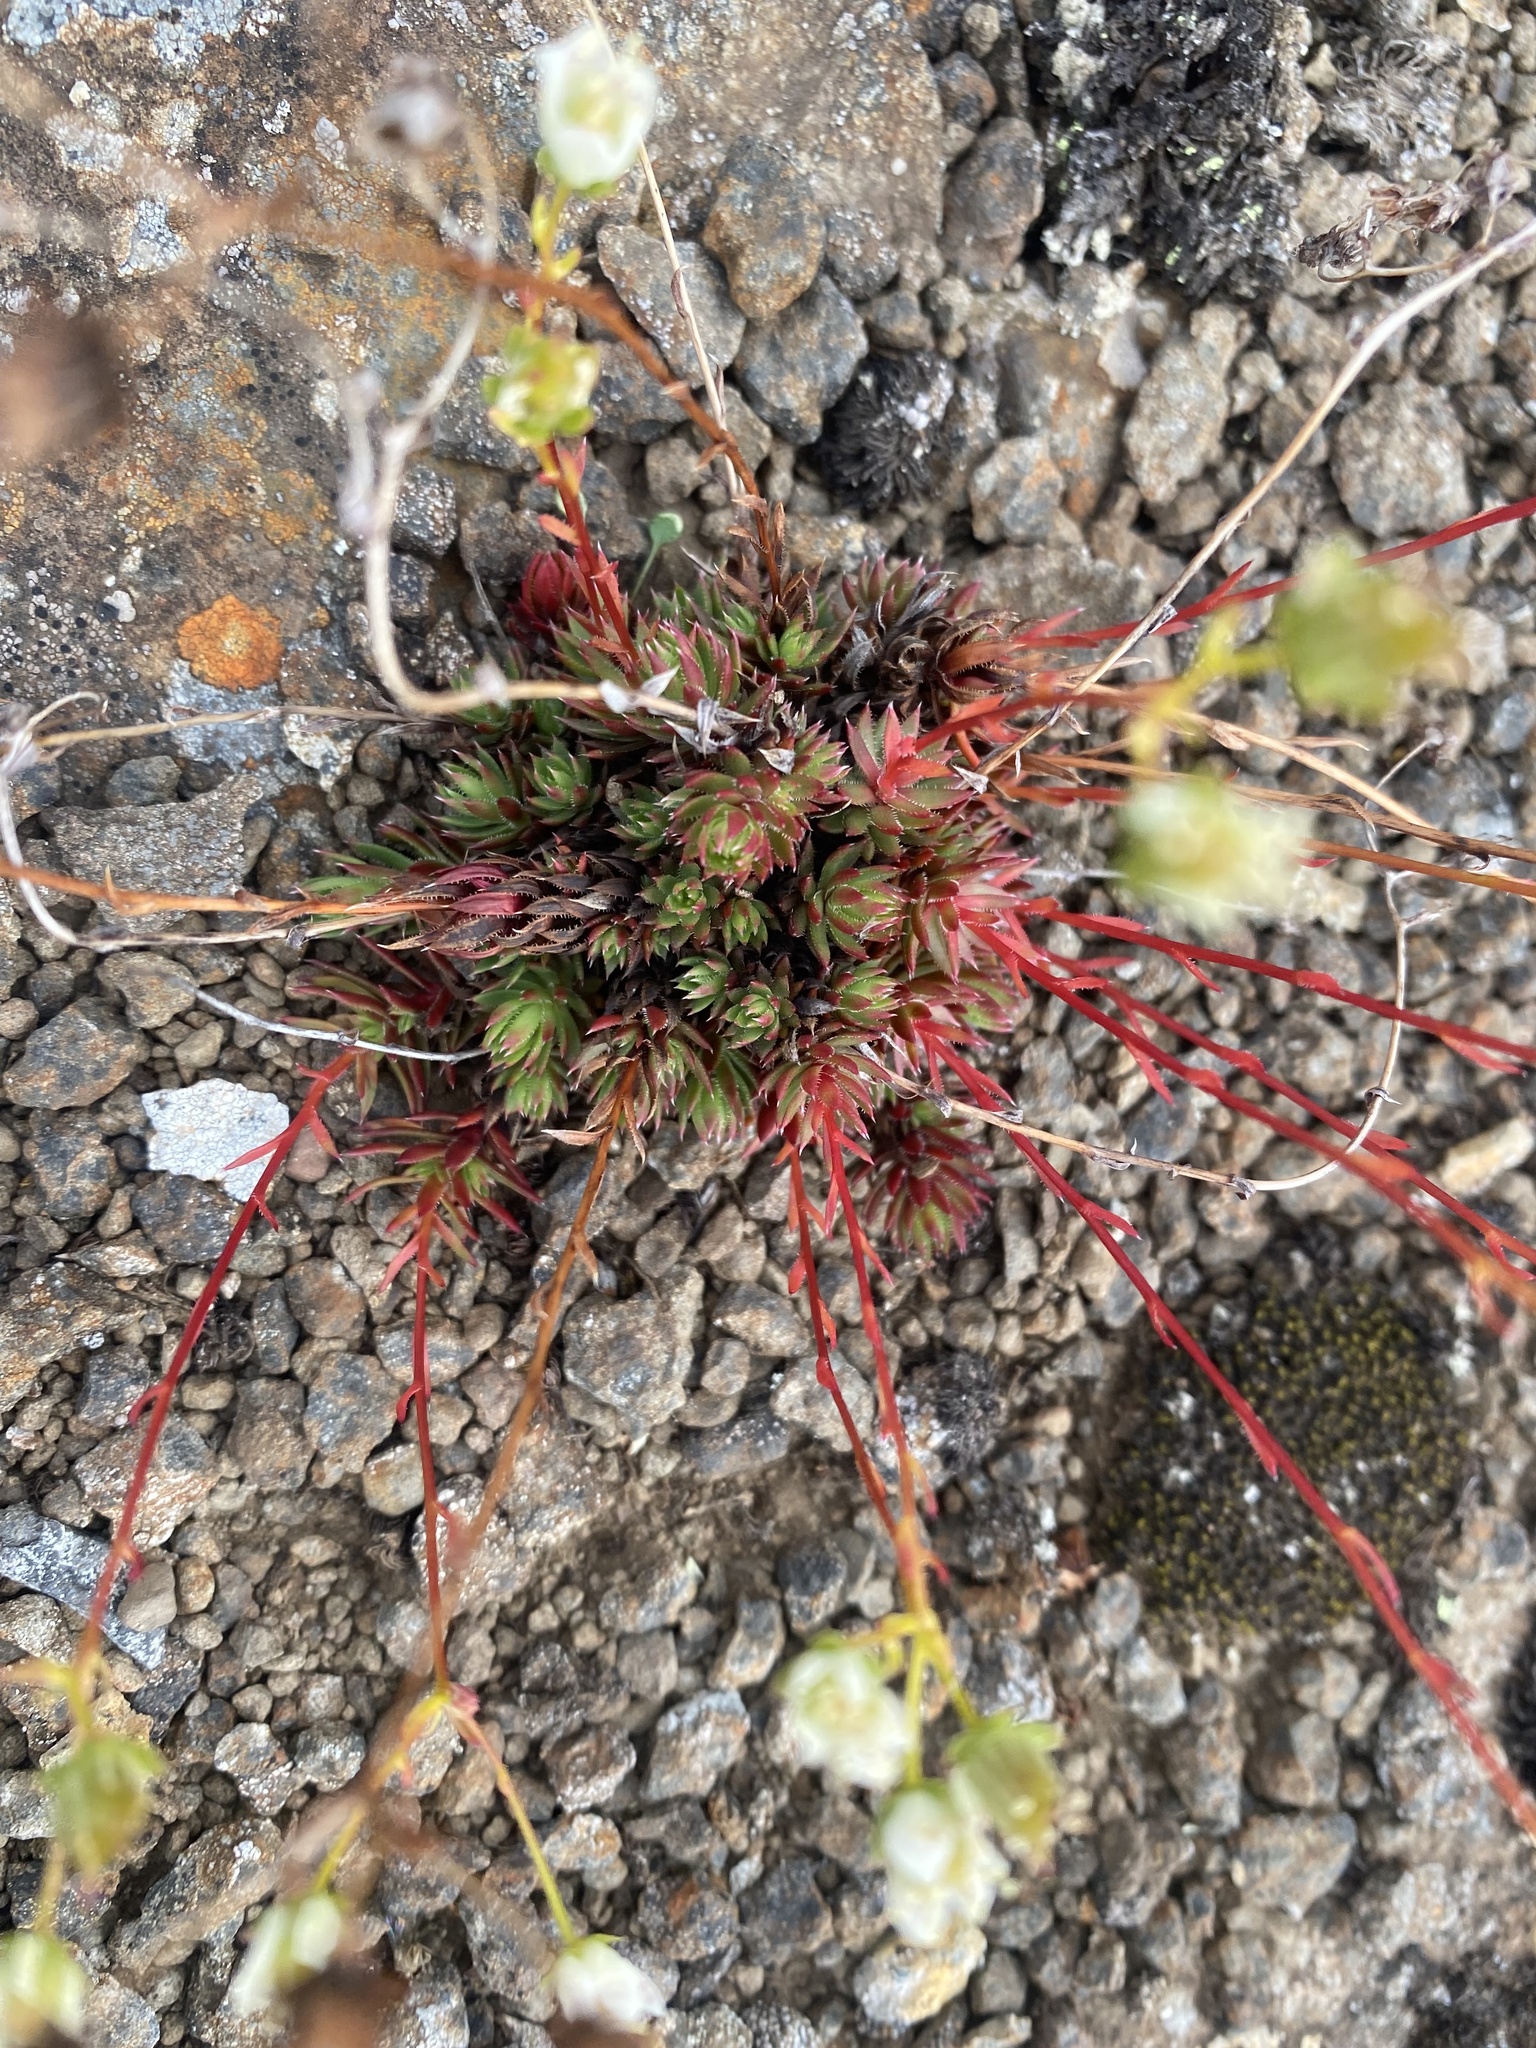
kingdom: Plantae
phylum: Tracheophyta
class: Magnoliopsida
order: Saxifragales
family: Saxifragaceae
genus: Saxifraga
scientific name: Saxifraga
